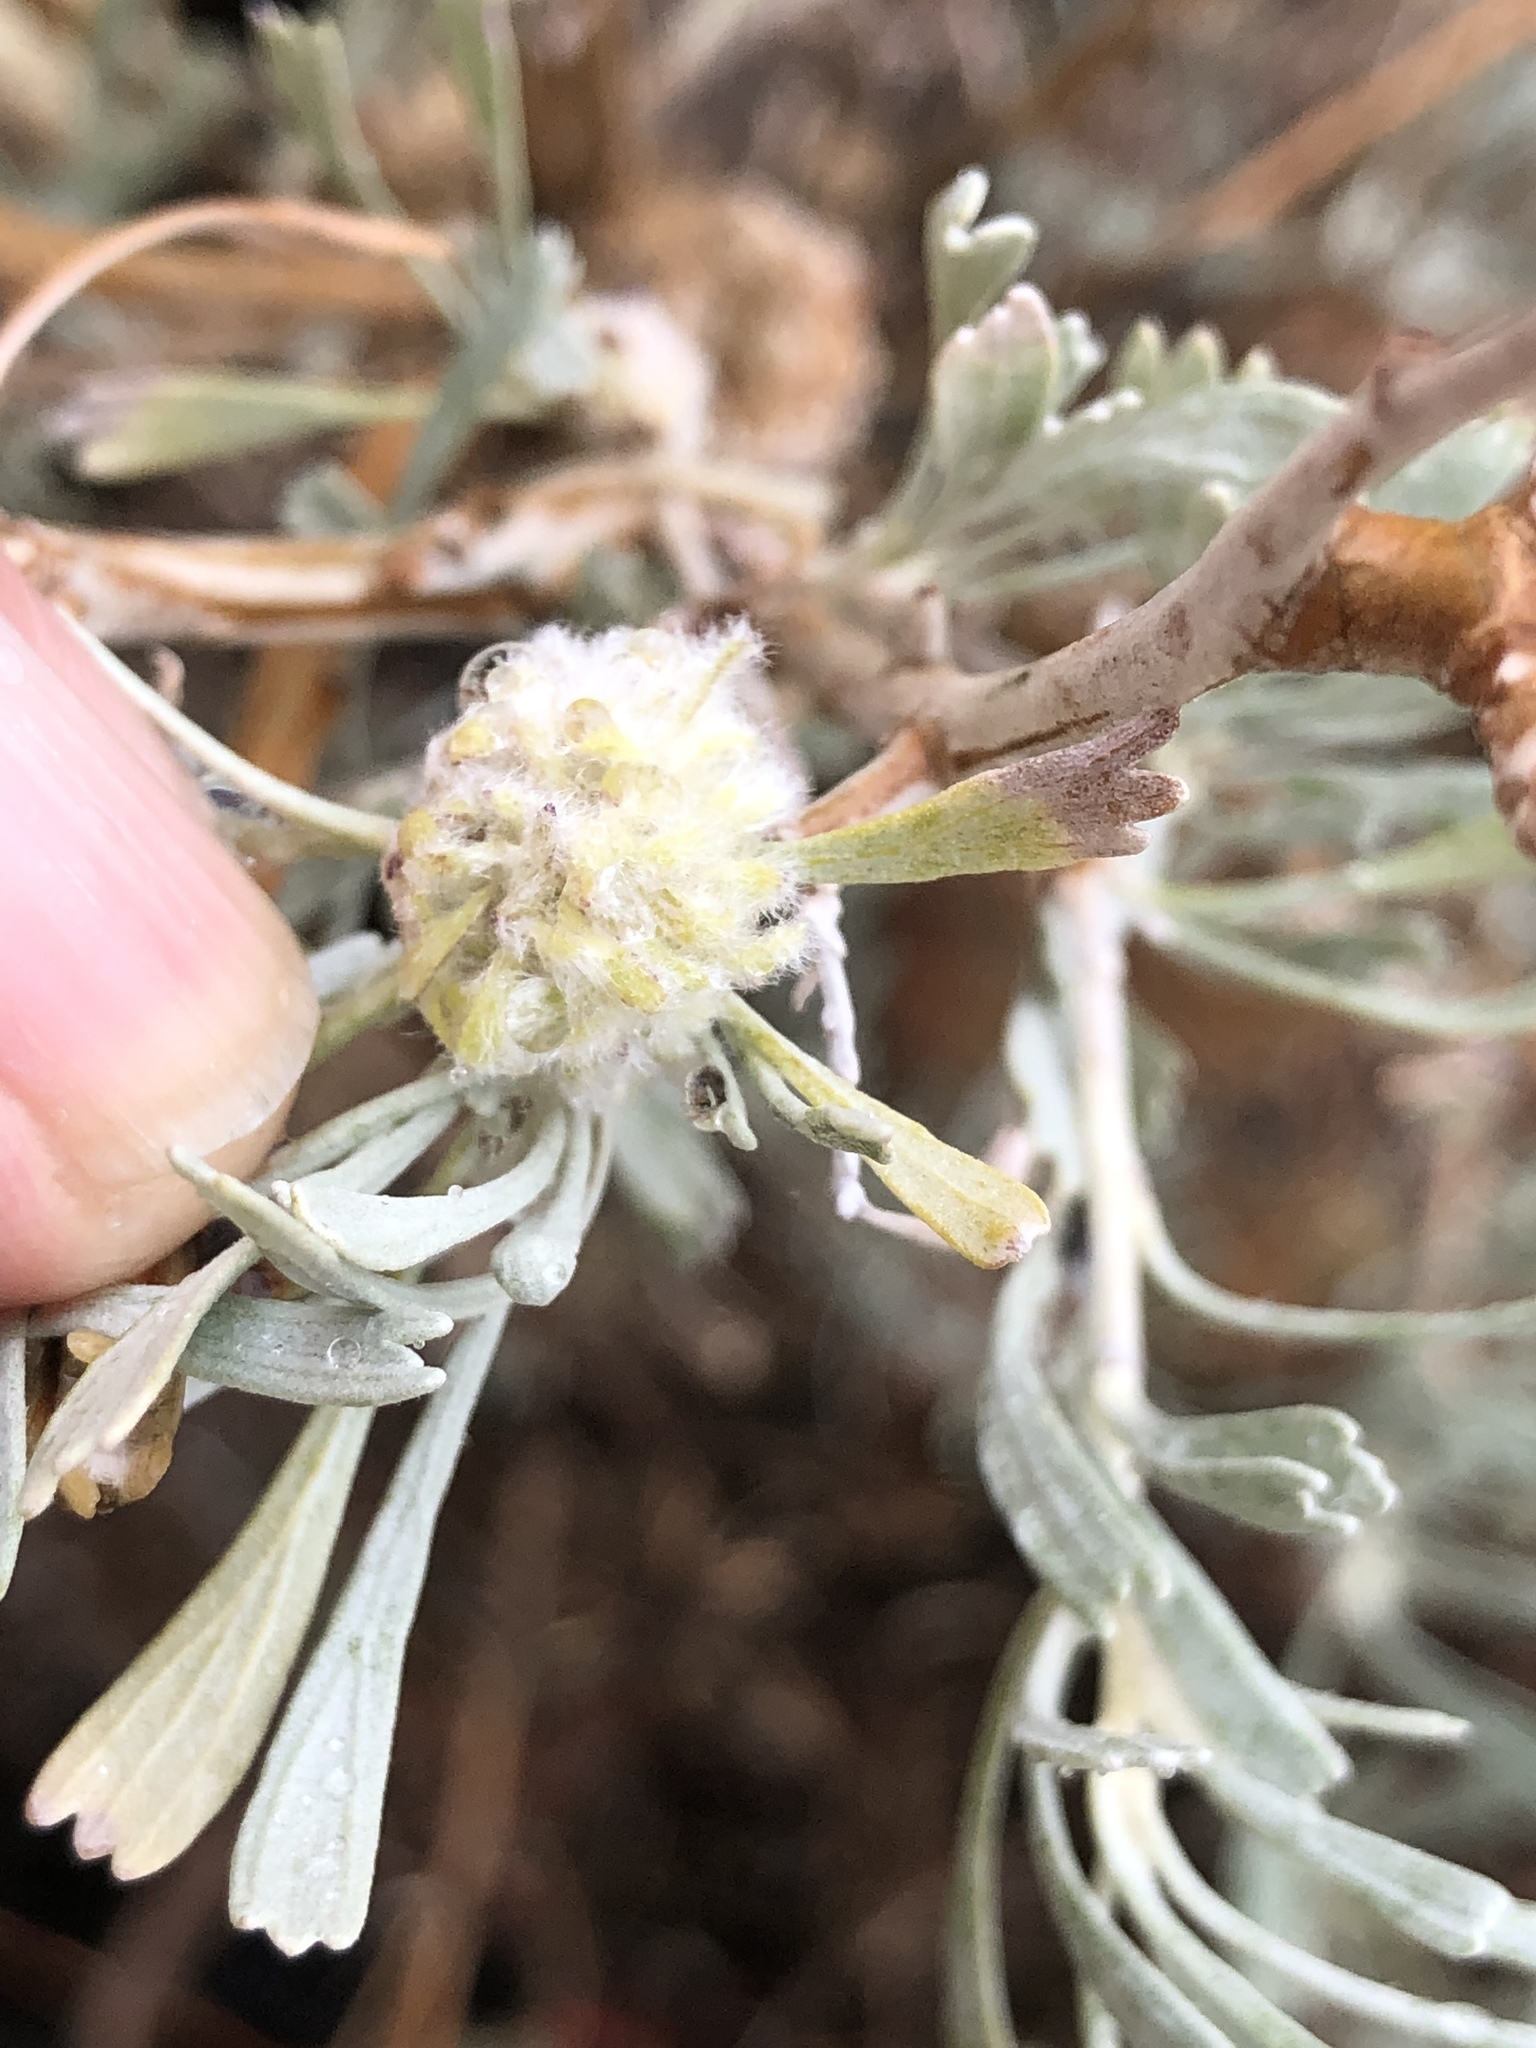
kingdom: Plantae
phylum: Tracheophyta
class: Magnoliopsida
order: Asterales
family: Asteraceae
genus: Artemisia
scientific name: Artemisia tridentata
